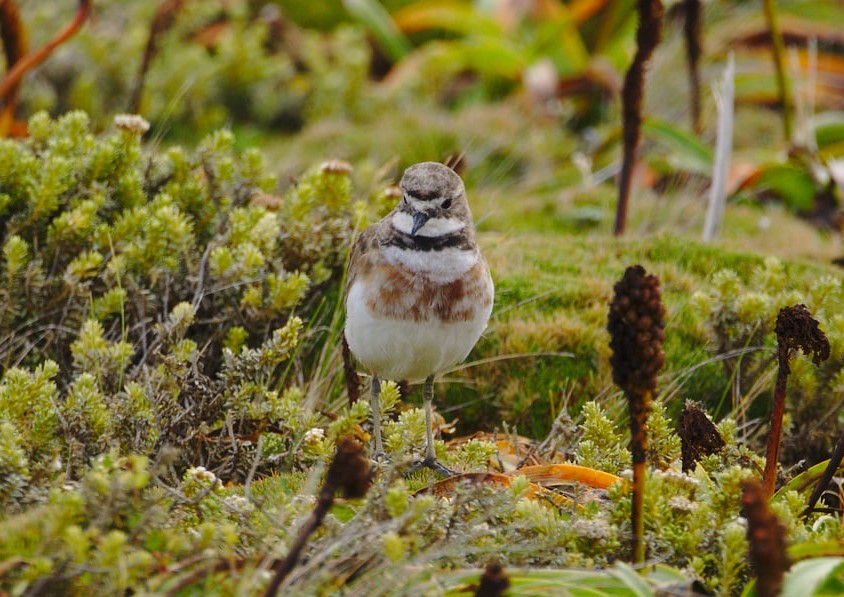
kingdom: Animalia
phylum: Chordata
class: Aves
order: Charadriiformes
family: Charadriidae
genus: Anarhynchus
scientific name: Anarhynchus
